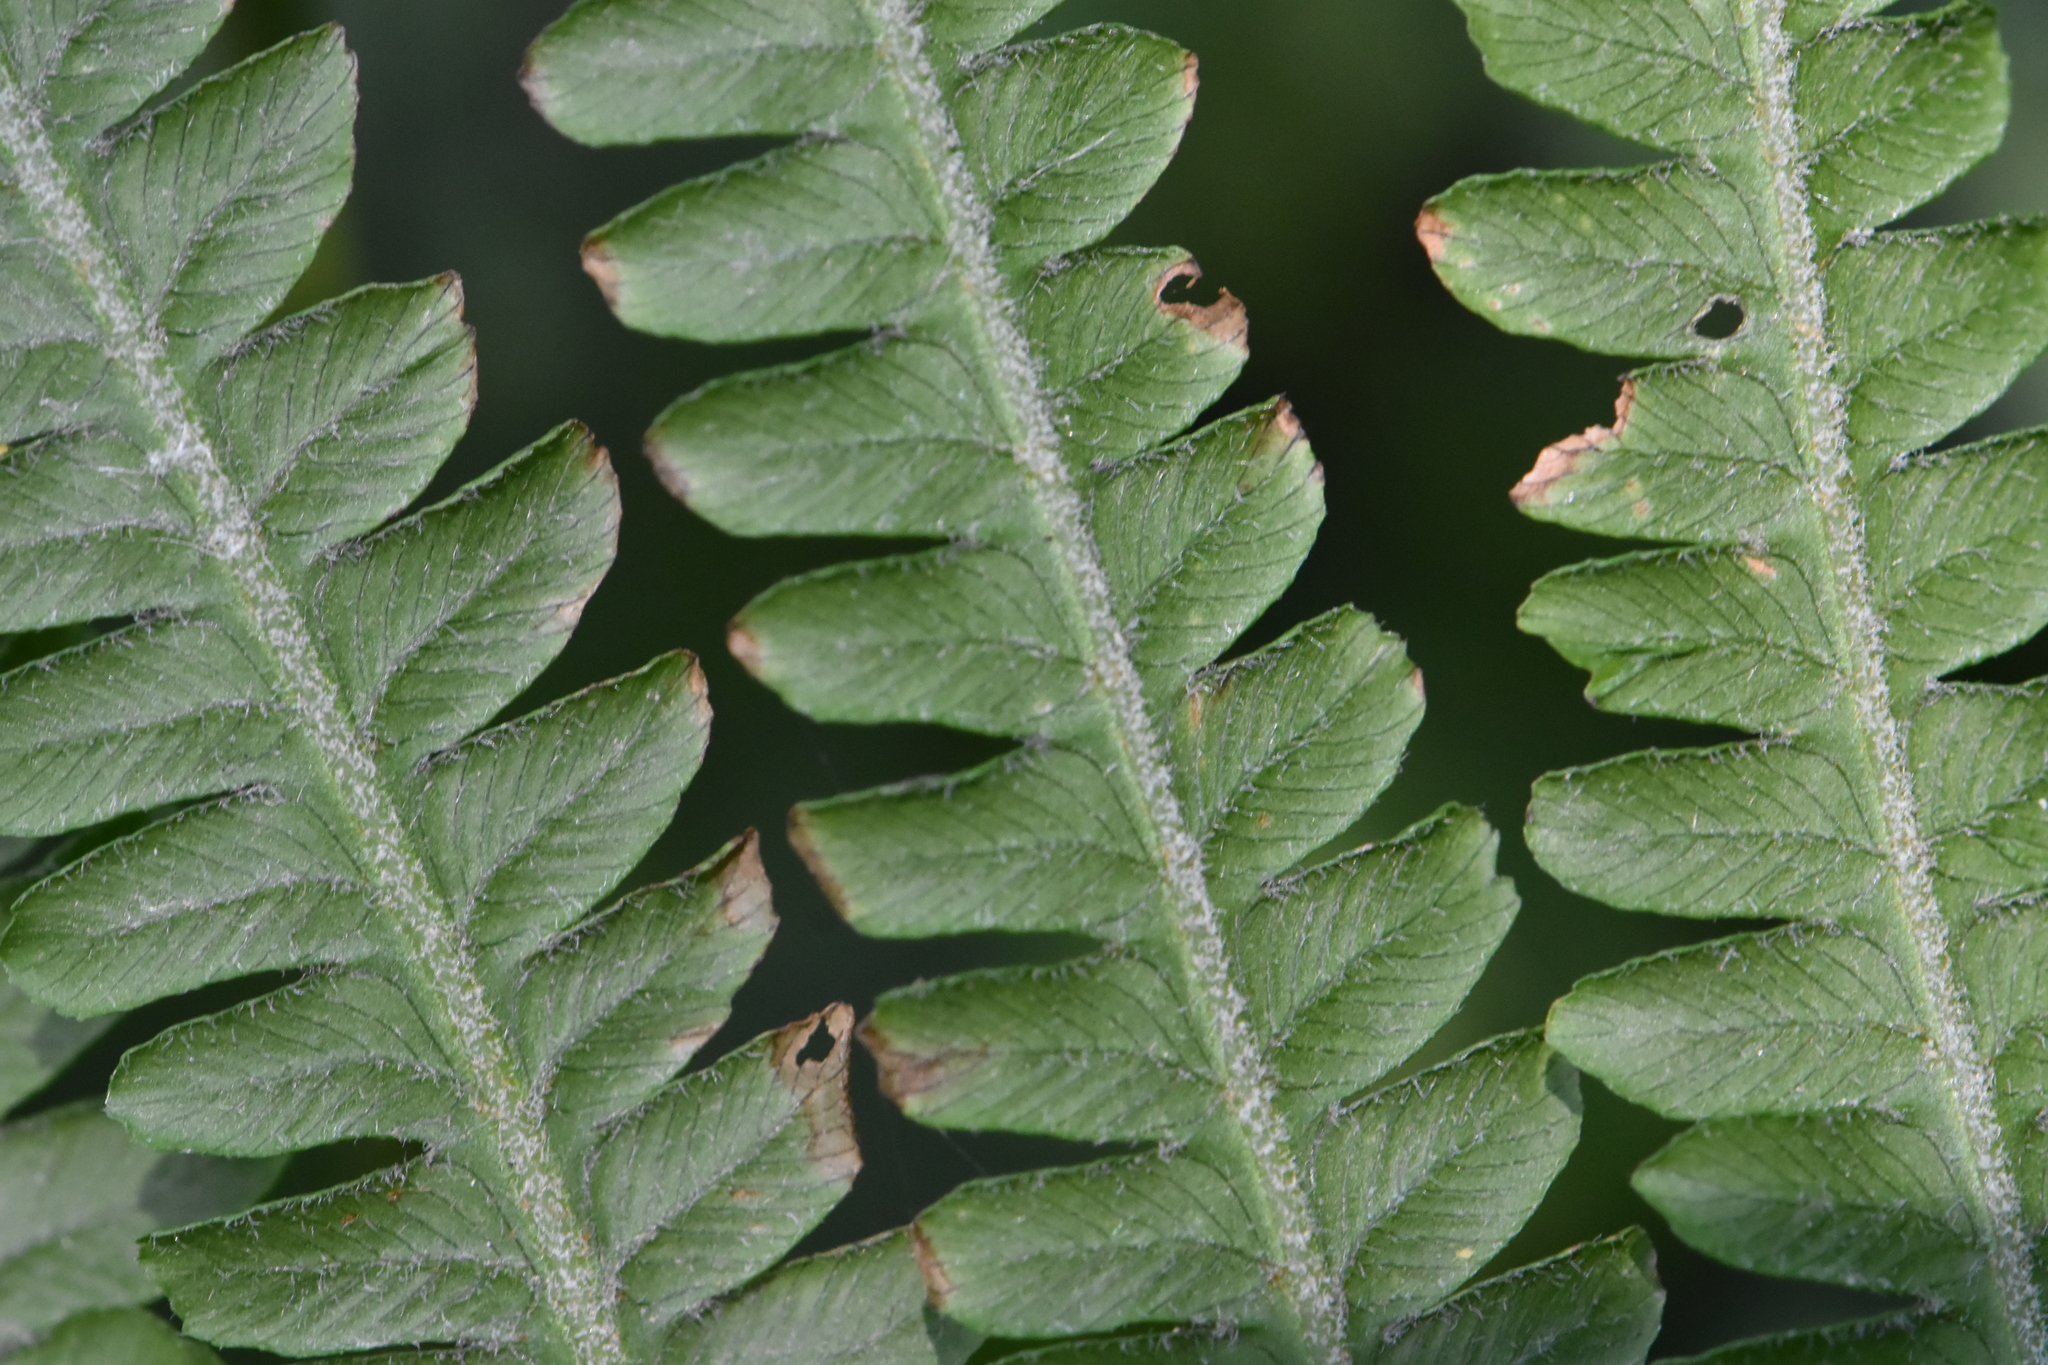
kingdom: Plantae
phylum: Tracheophyta
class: Polypodiopsida
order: Polypodiales
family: Onocleaceae
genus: Matteuccia
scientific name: Matteuccia struthiopteris
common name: Ostrich fern
